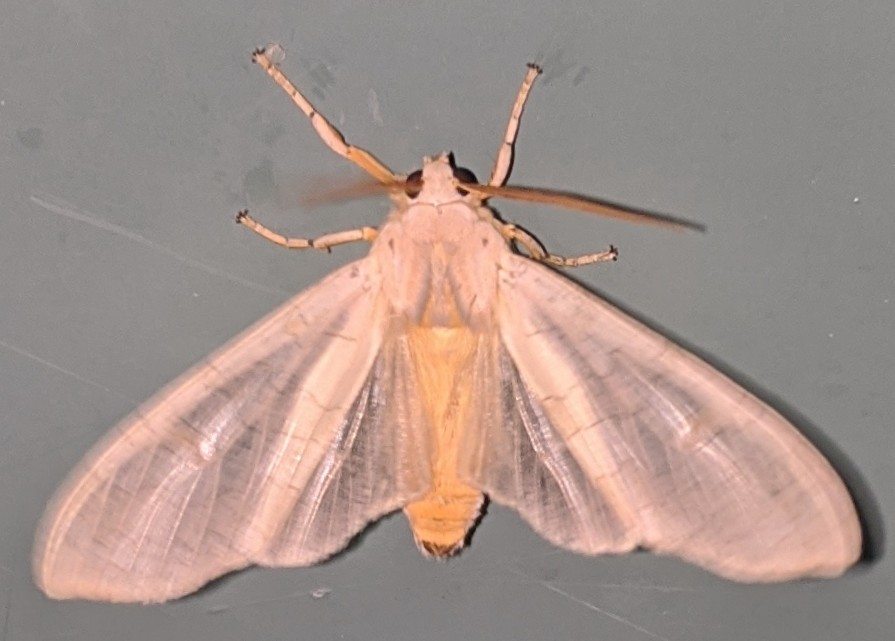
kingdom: Animalia
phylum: Arthropoda
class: Insecta
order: Lepidoptera
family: Erebidae
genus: Halysidota
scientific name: Halysidota tessellaris
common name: Banded tussock moth
